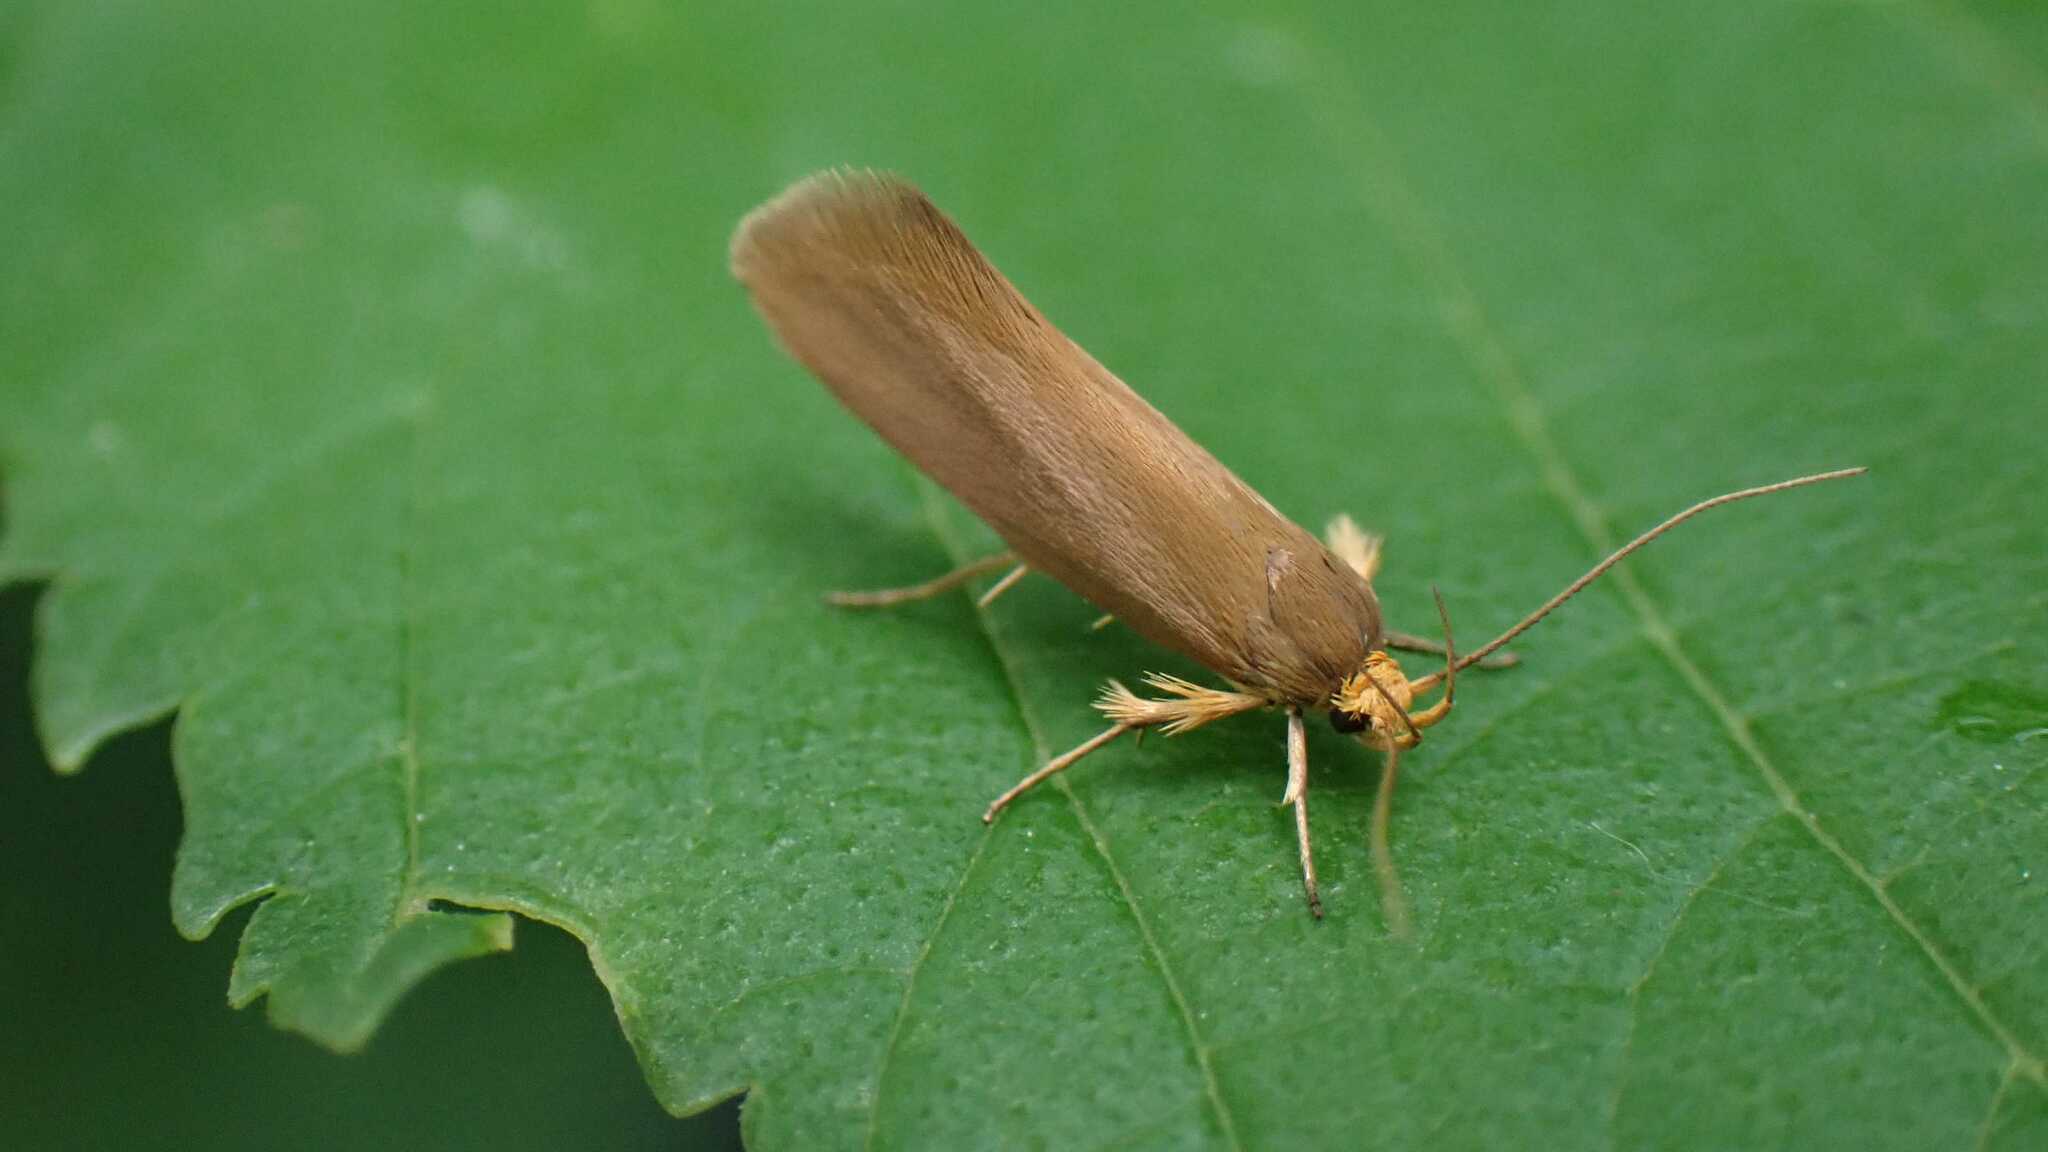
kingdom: Animalia
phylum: Arthropoda
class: Insecta
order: Lepidoptera
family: Oecophoridae
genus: Borkhausenia
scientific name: Borkhausenia Crassa unitella
